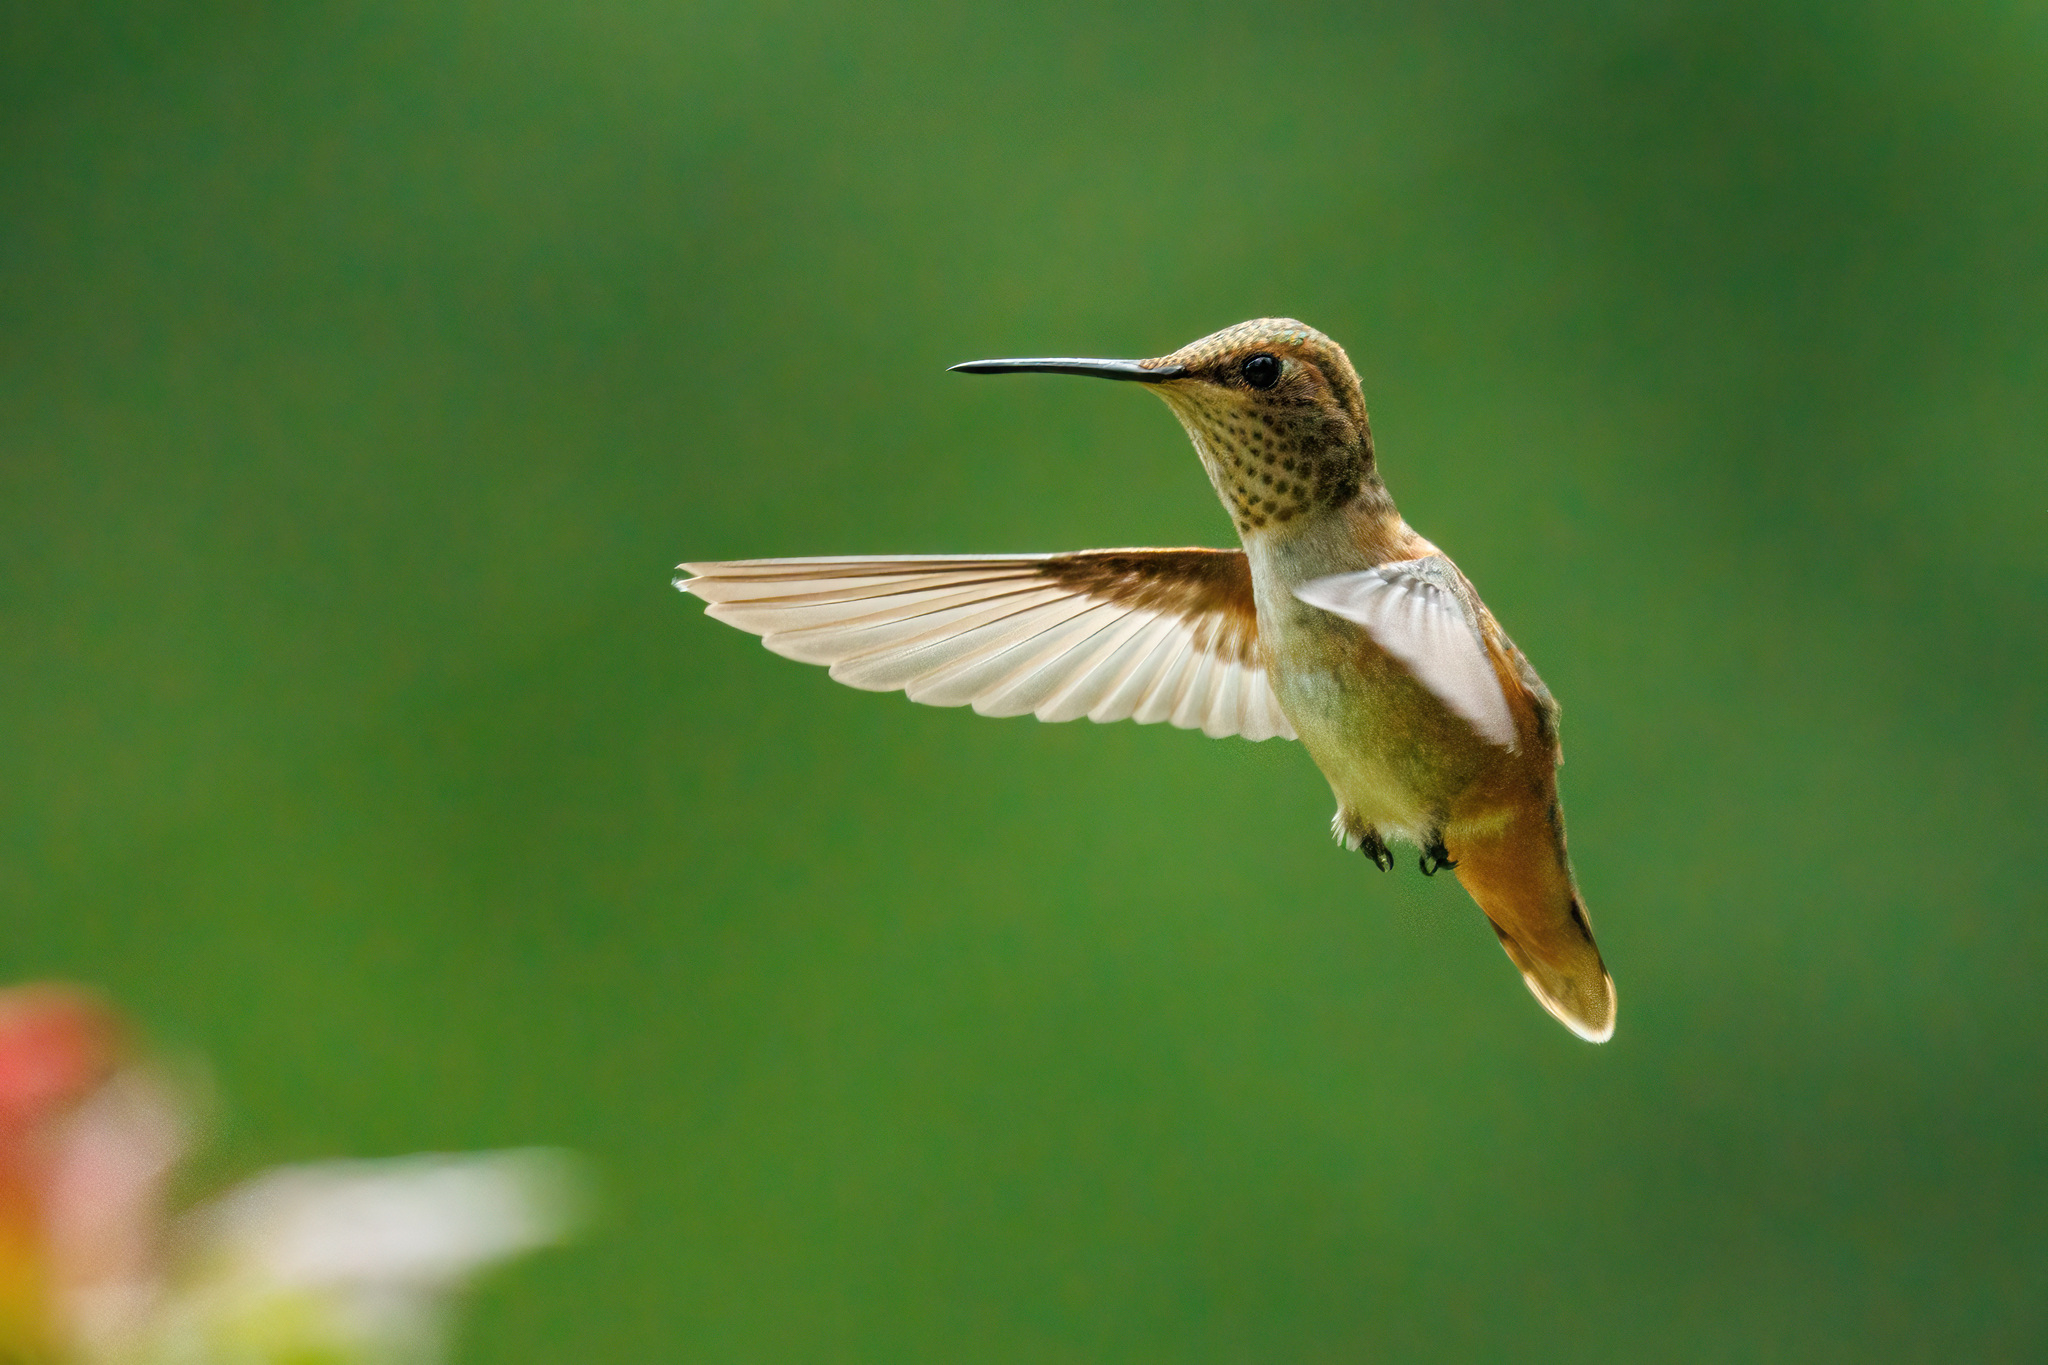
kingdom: Animalia
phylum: Chordata
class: Aves
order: Apodiformes
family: Trochilidae
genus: Selasphorus
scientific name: Selasphorus rufus
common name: Rufous hummingbird
